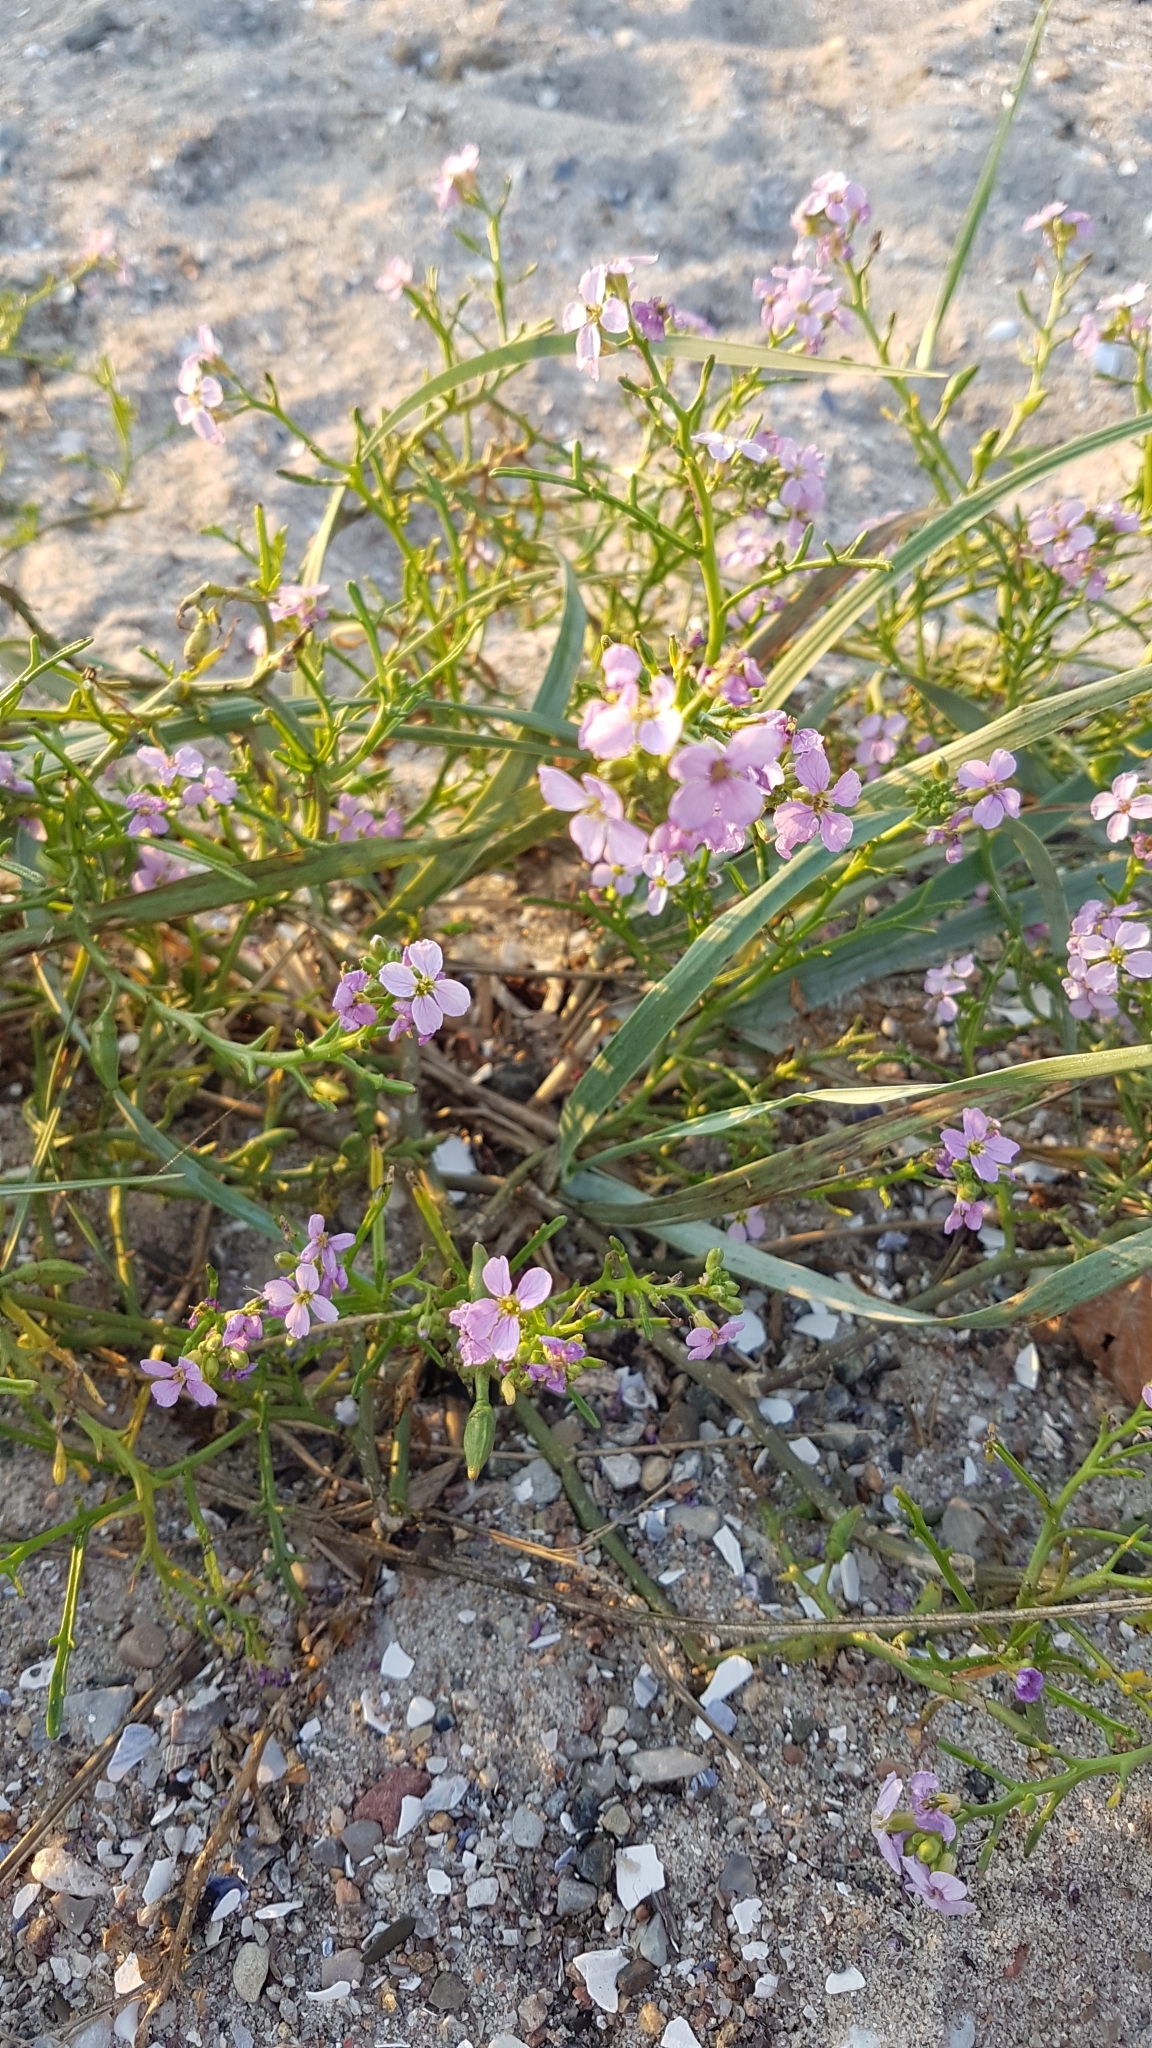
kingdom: Plantae
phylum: Tracheophyta
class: Magnoliopsida
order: Brassicales
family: Brassicaceae
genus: Cakile
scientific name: Cakile maritima
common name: Sea rocket
